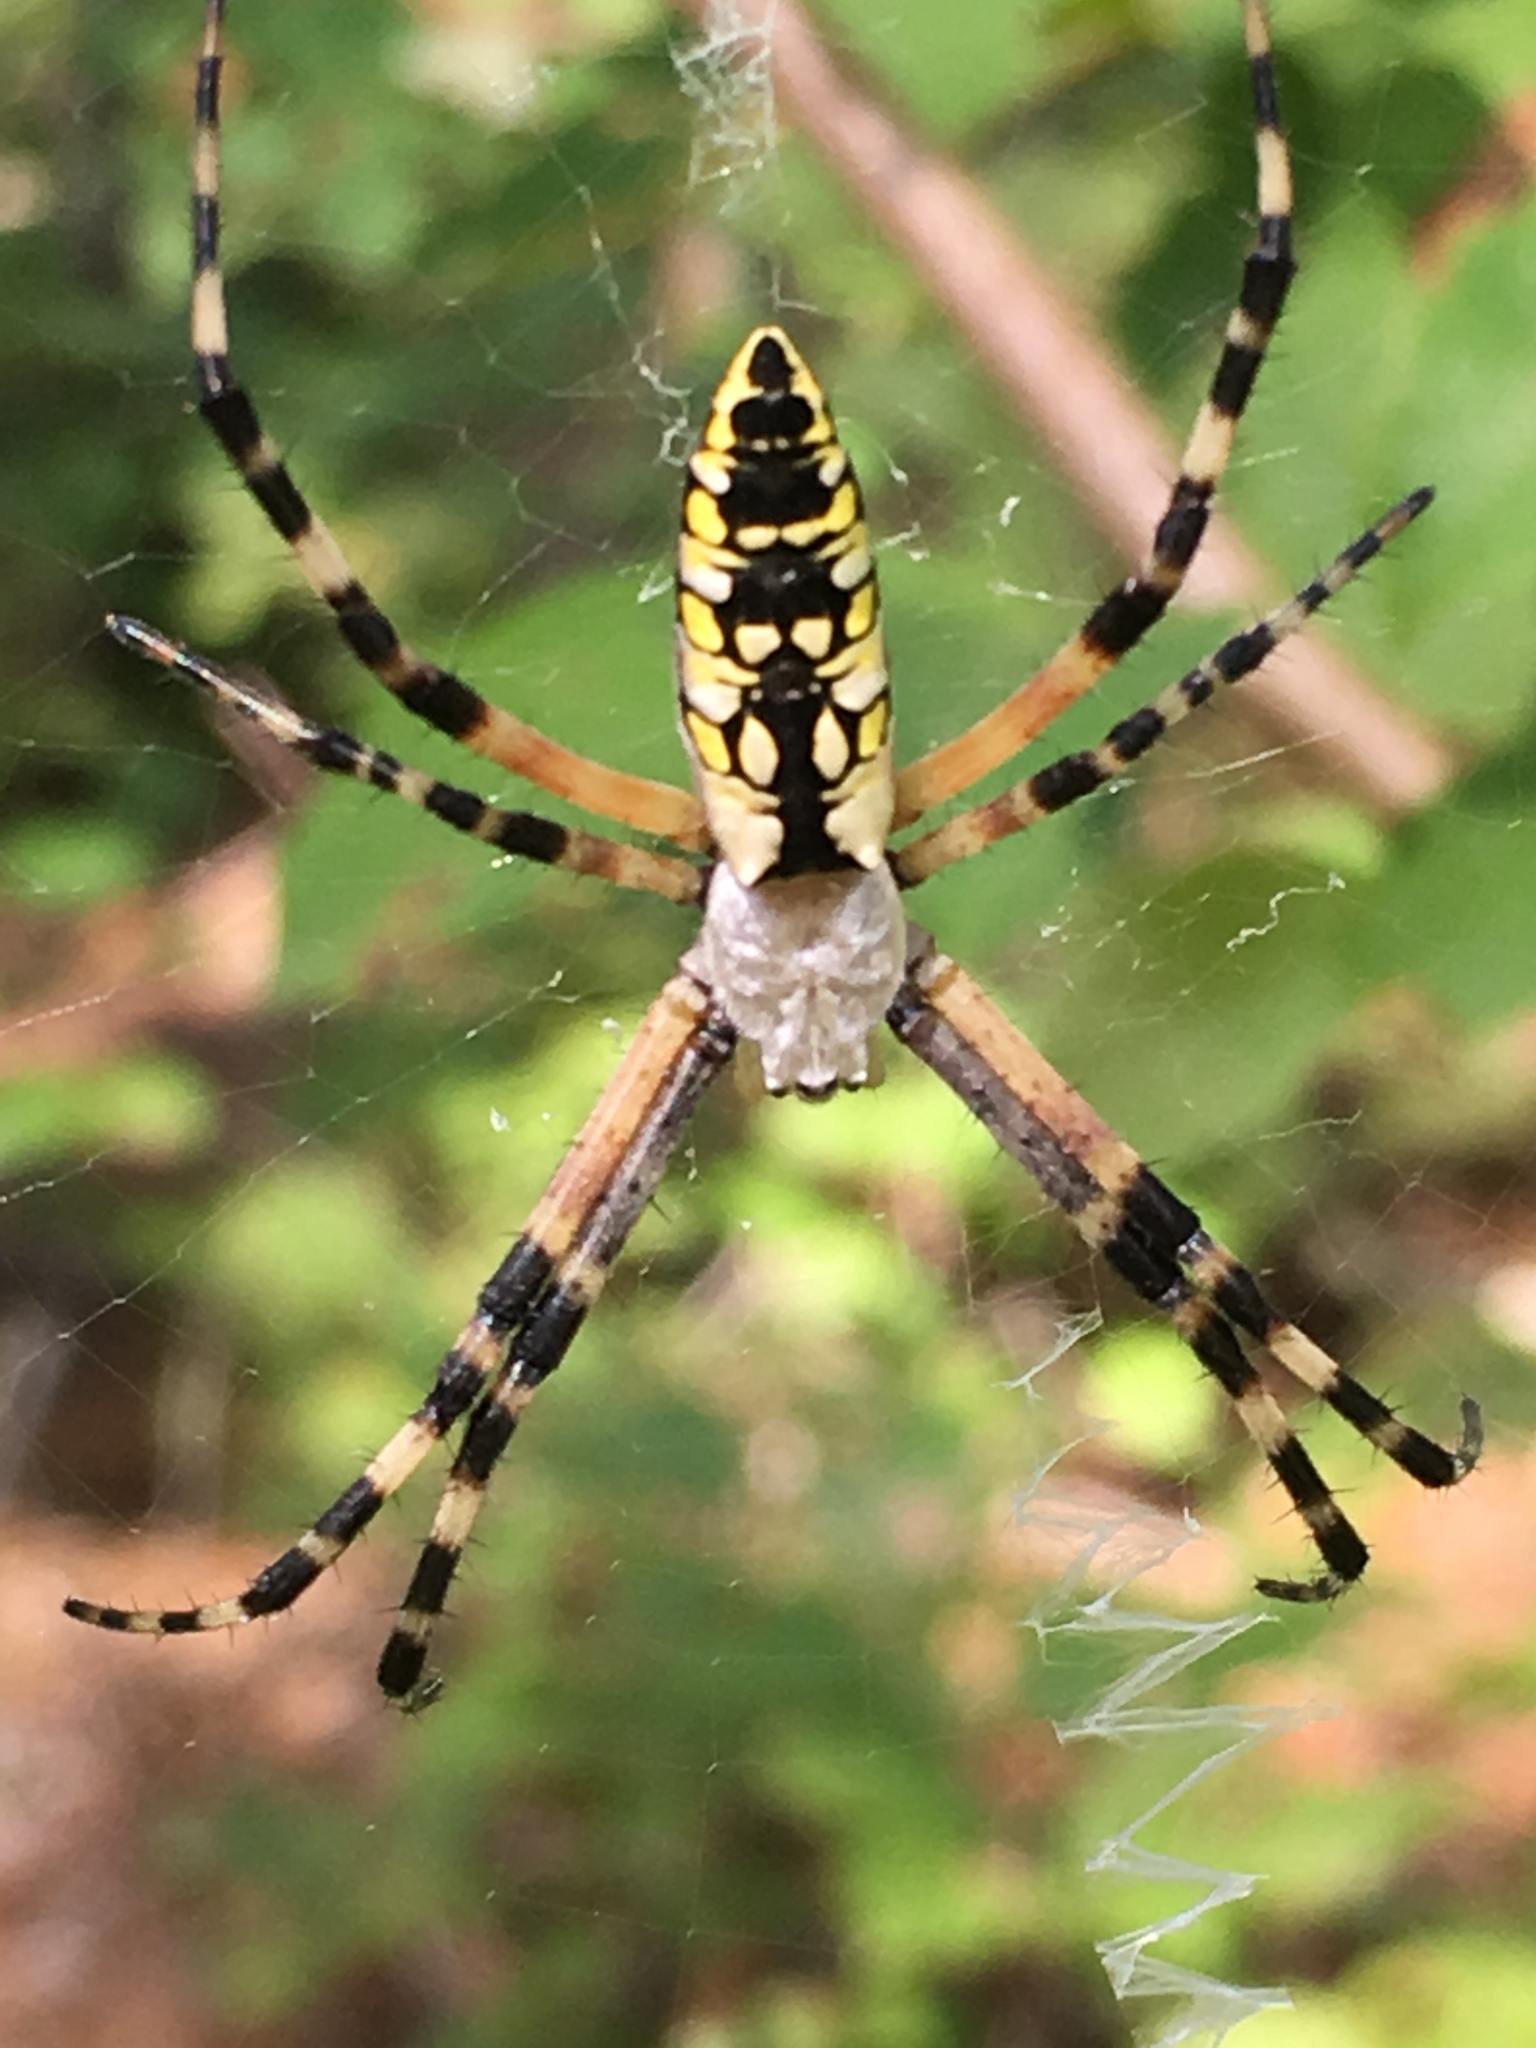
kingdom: Animalia
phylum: Arthropoda
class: Arachnida
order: Araneae
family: Araneidae
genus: Argiope
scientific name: Argiope aurantia
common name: Orb weavers
